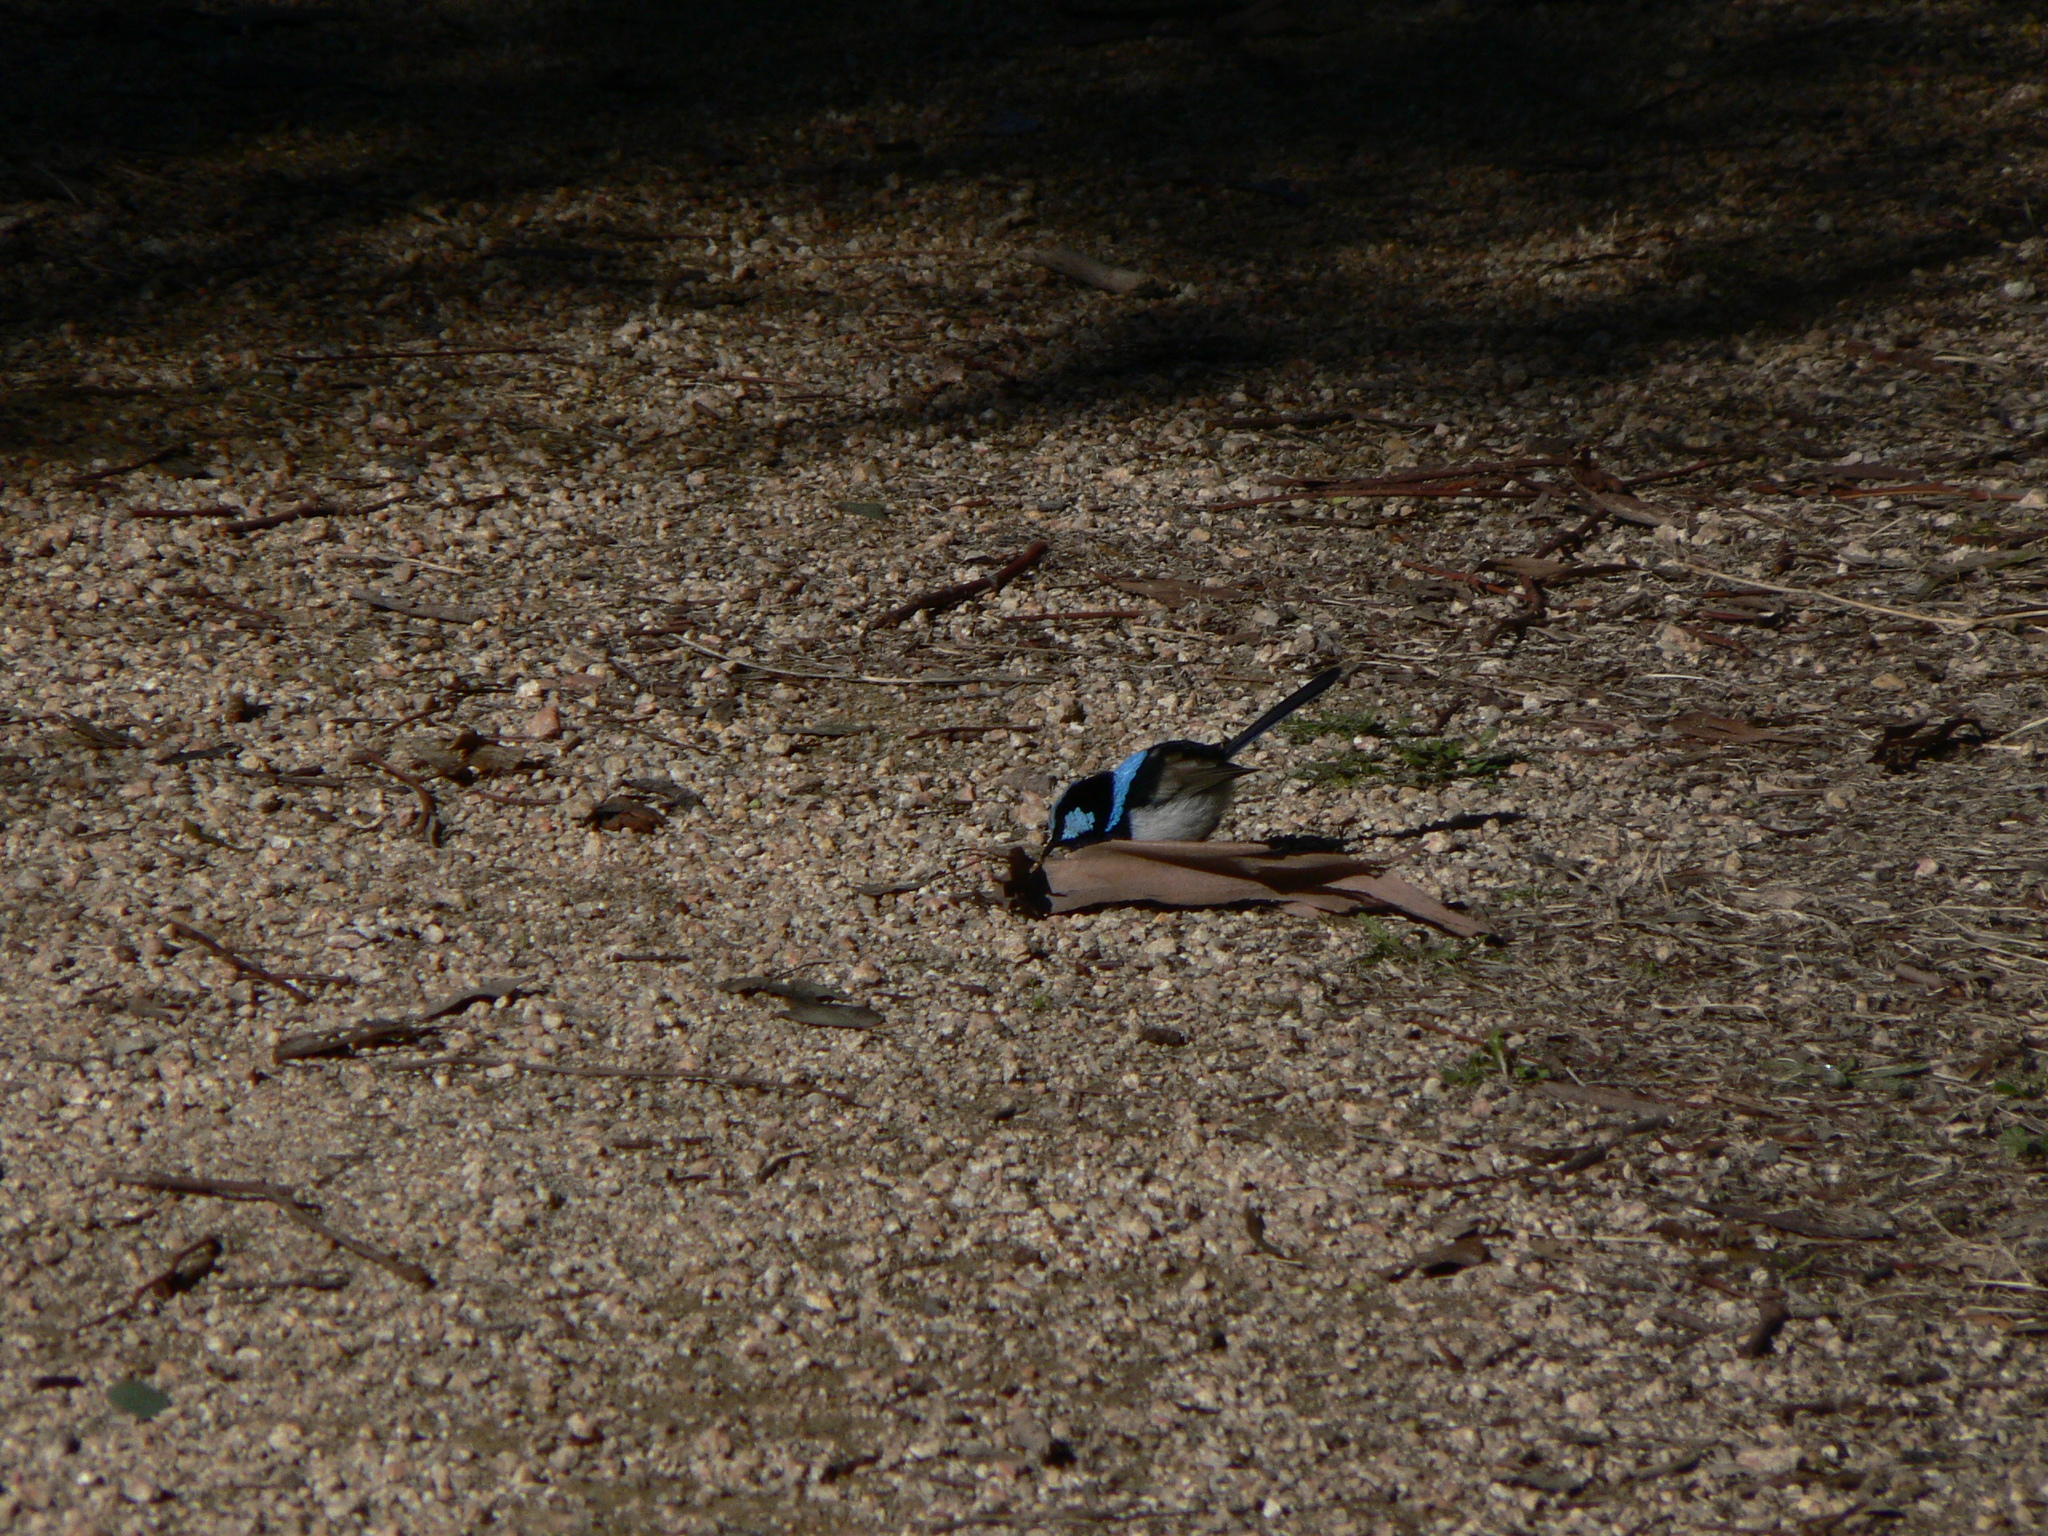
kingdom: Animalia
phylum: Chordata
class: Aves
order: Passeriformes
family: Maluridae
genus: Malurus
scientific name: Malurus cyaneus
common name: Superb fairywren
